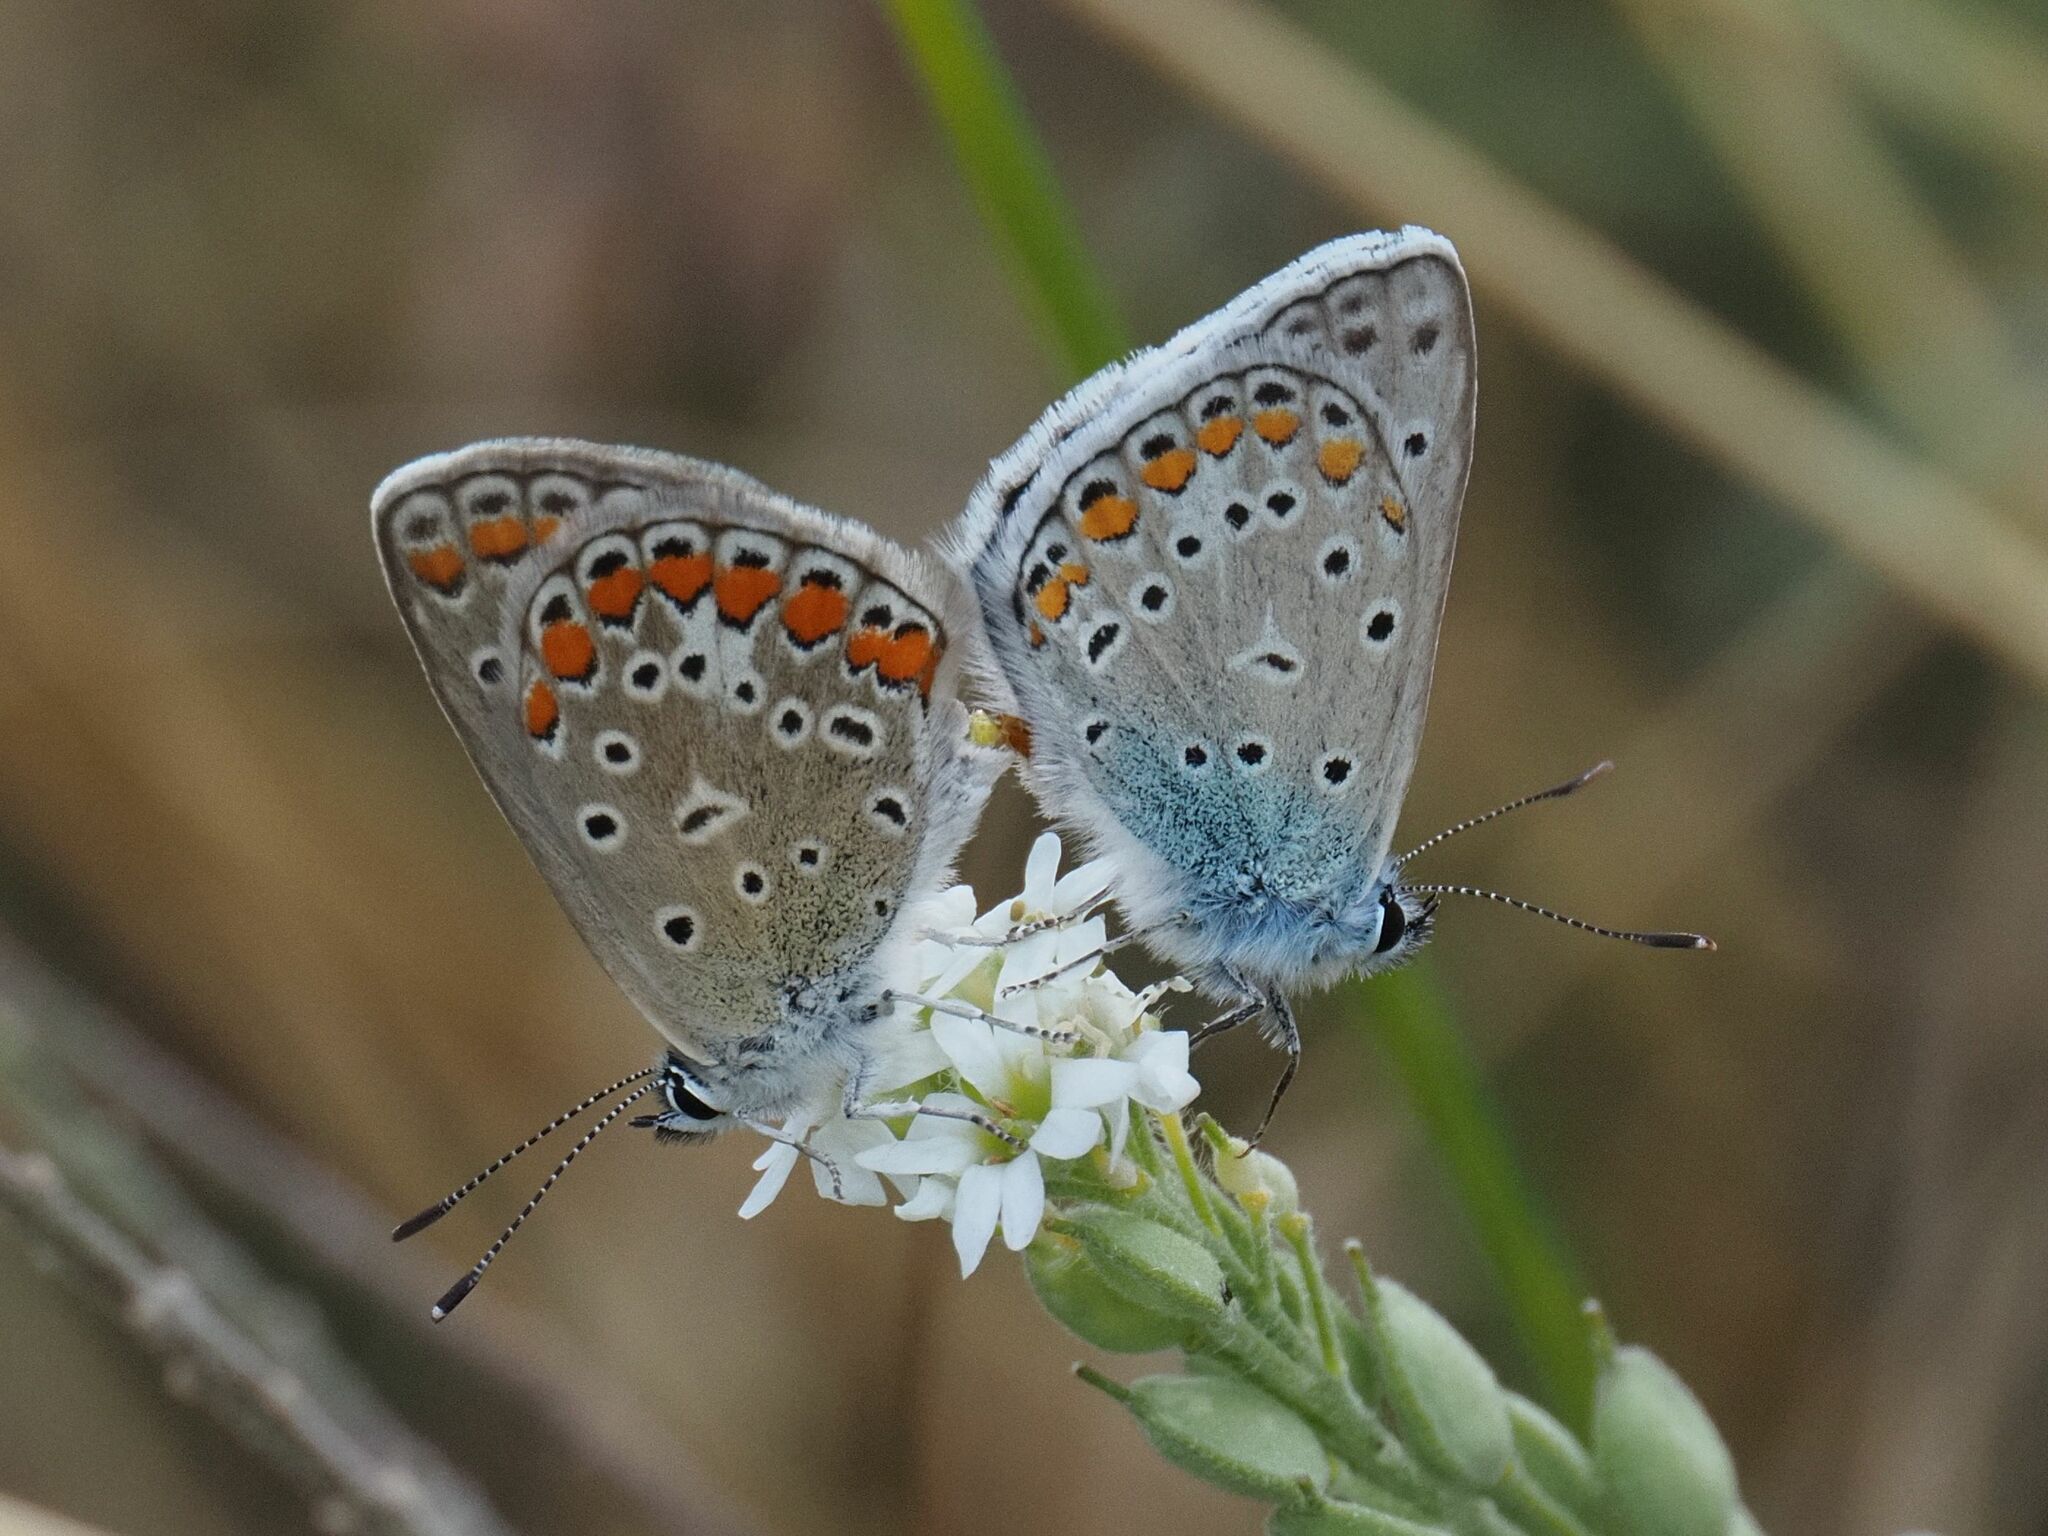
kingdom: Animalia
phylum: Arthropoda
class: Insecta
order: Lepidoptera
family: Lycaenidae
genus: Polyommatus
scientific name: Polyommatus icarus
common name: Common blue
